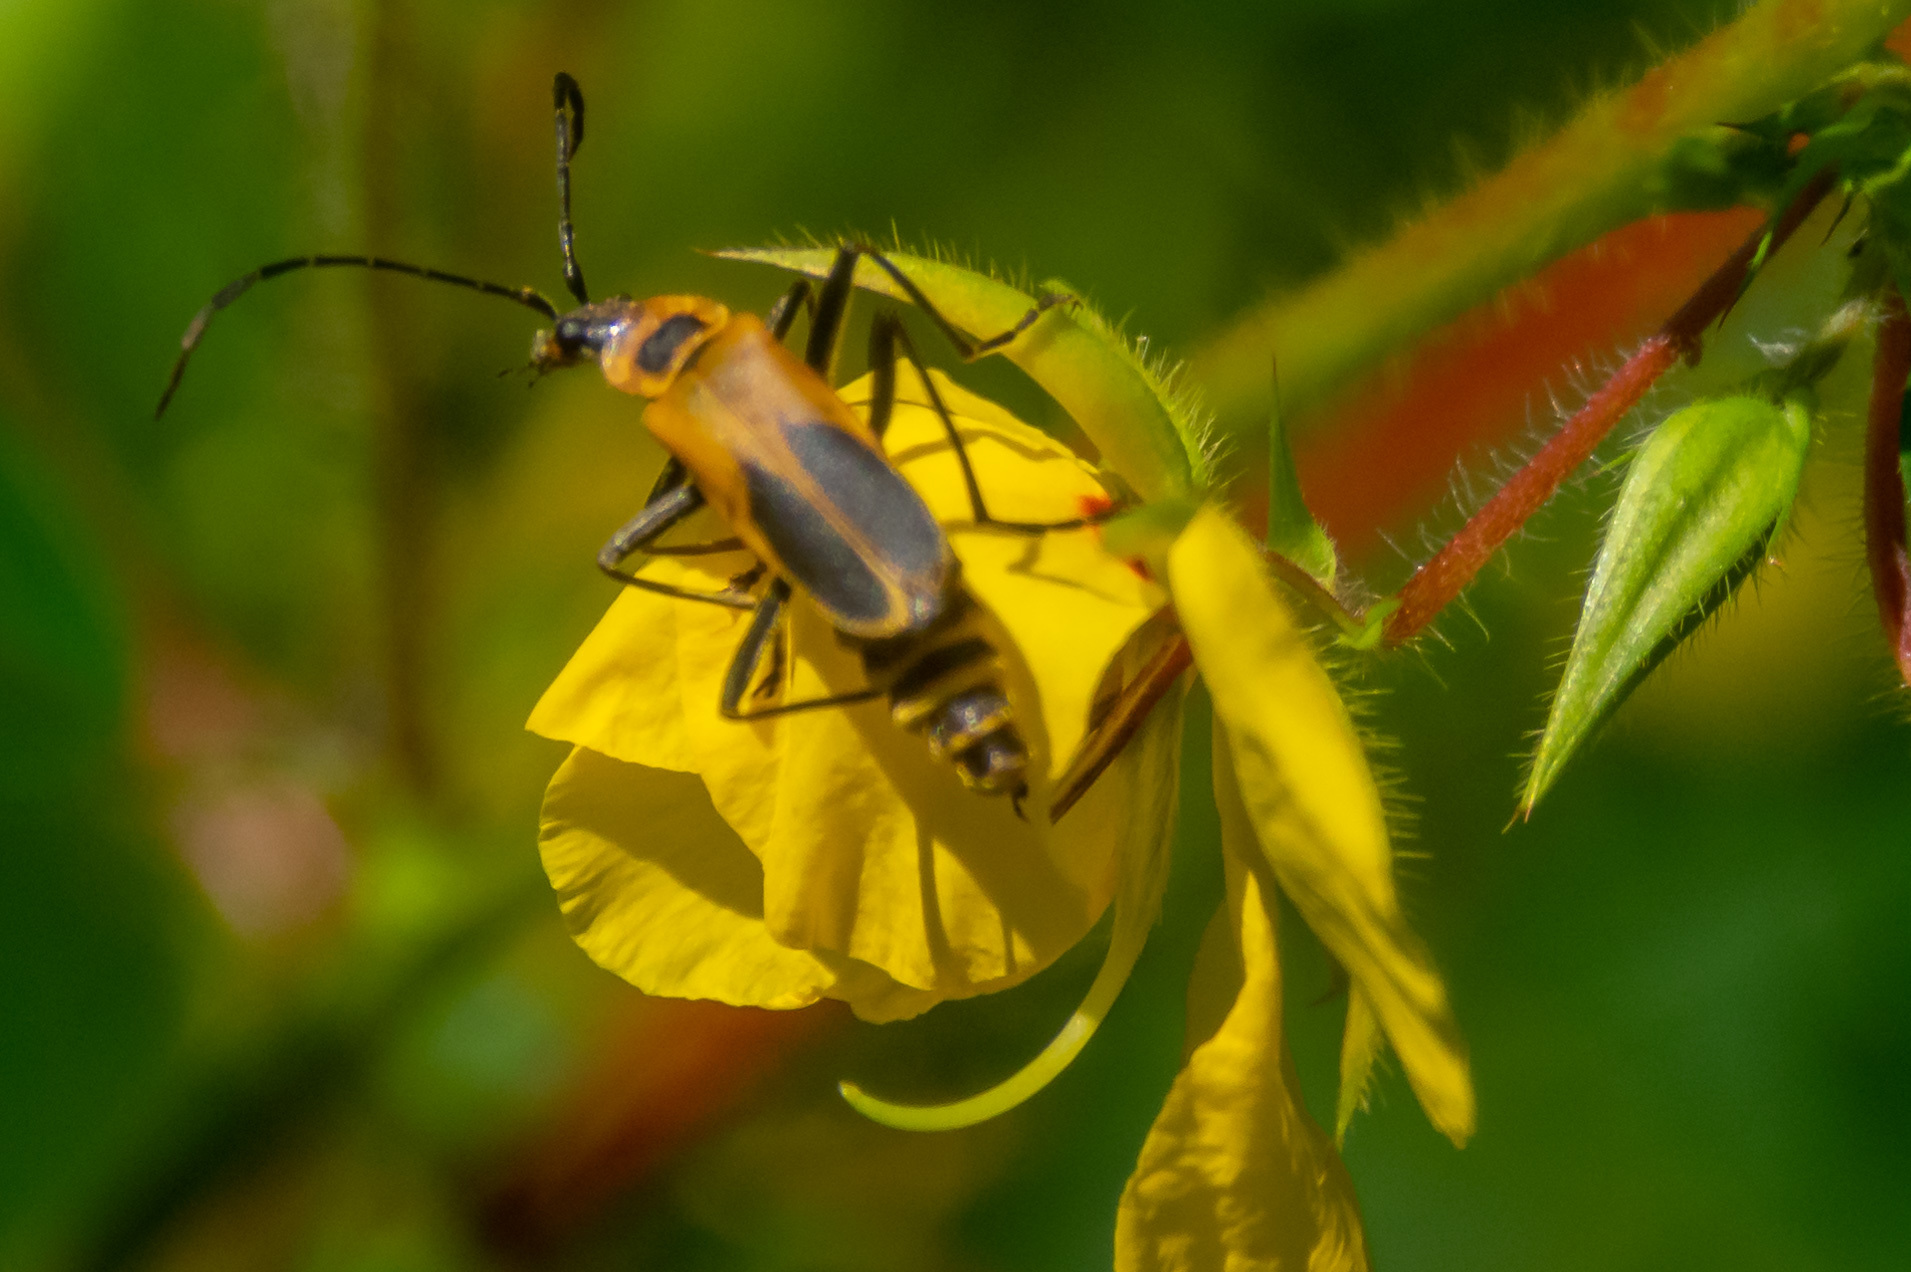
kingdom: Animalia
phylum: Arthropoda
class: Insecta
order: Coleoptera
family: Cantharidae
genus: Chauliognathus
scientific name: Chauliognathus pensylvanicus
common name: Goldenrod soldier beetle
